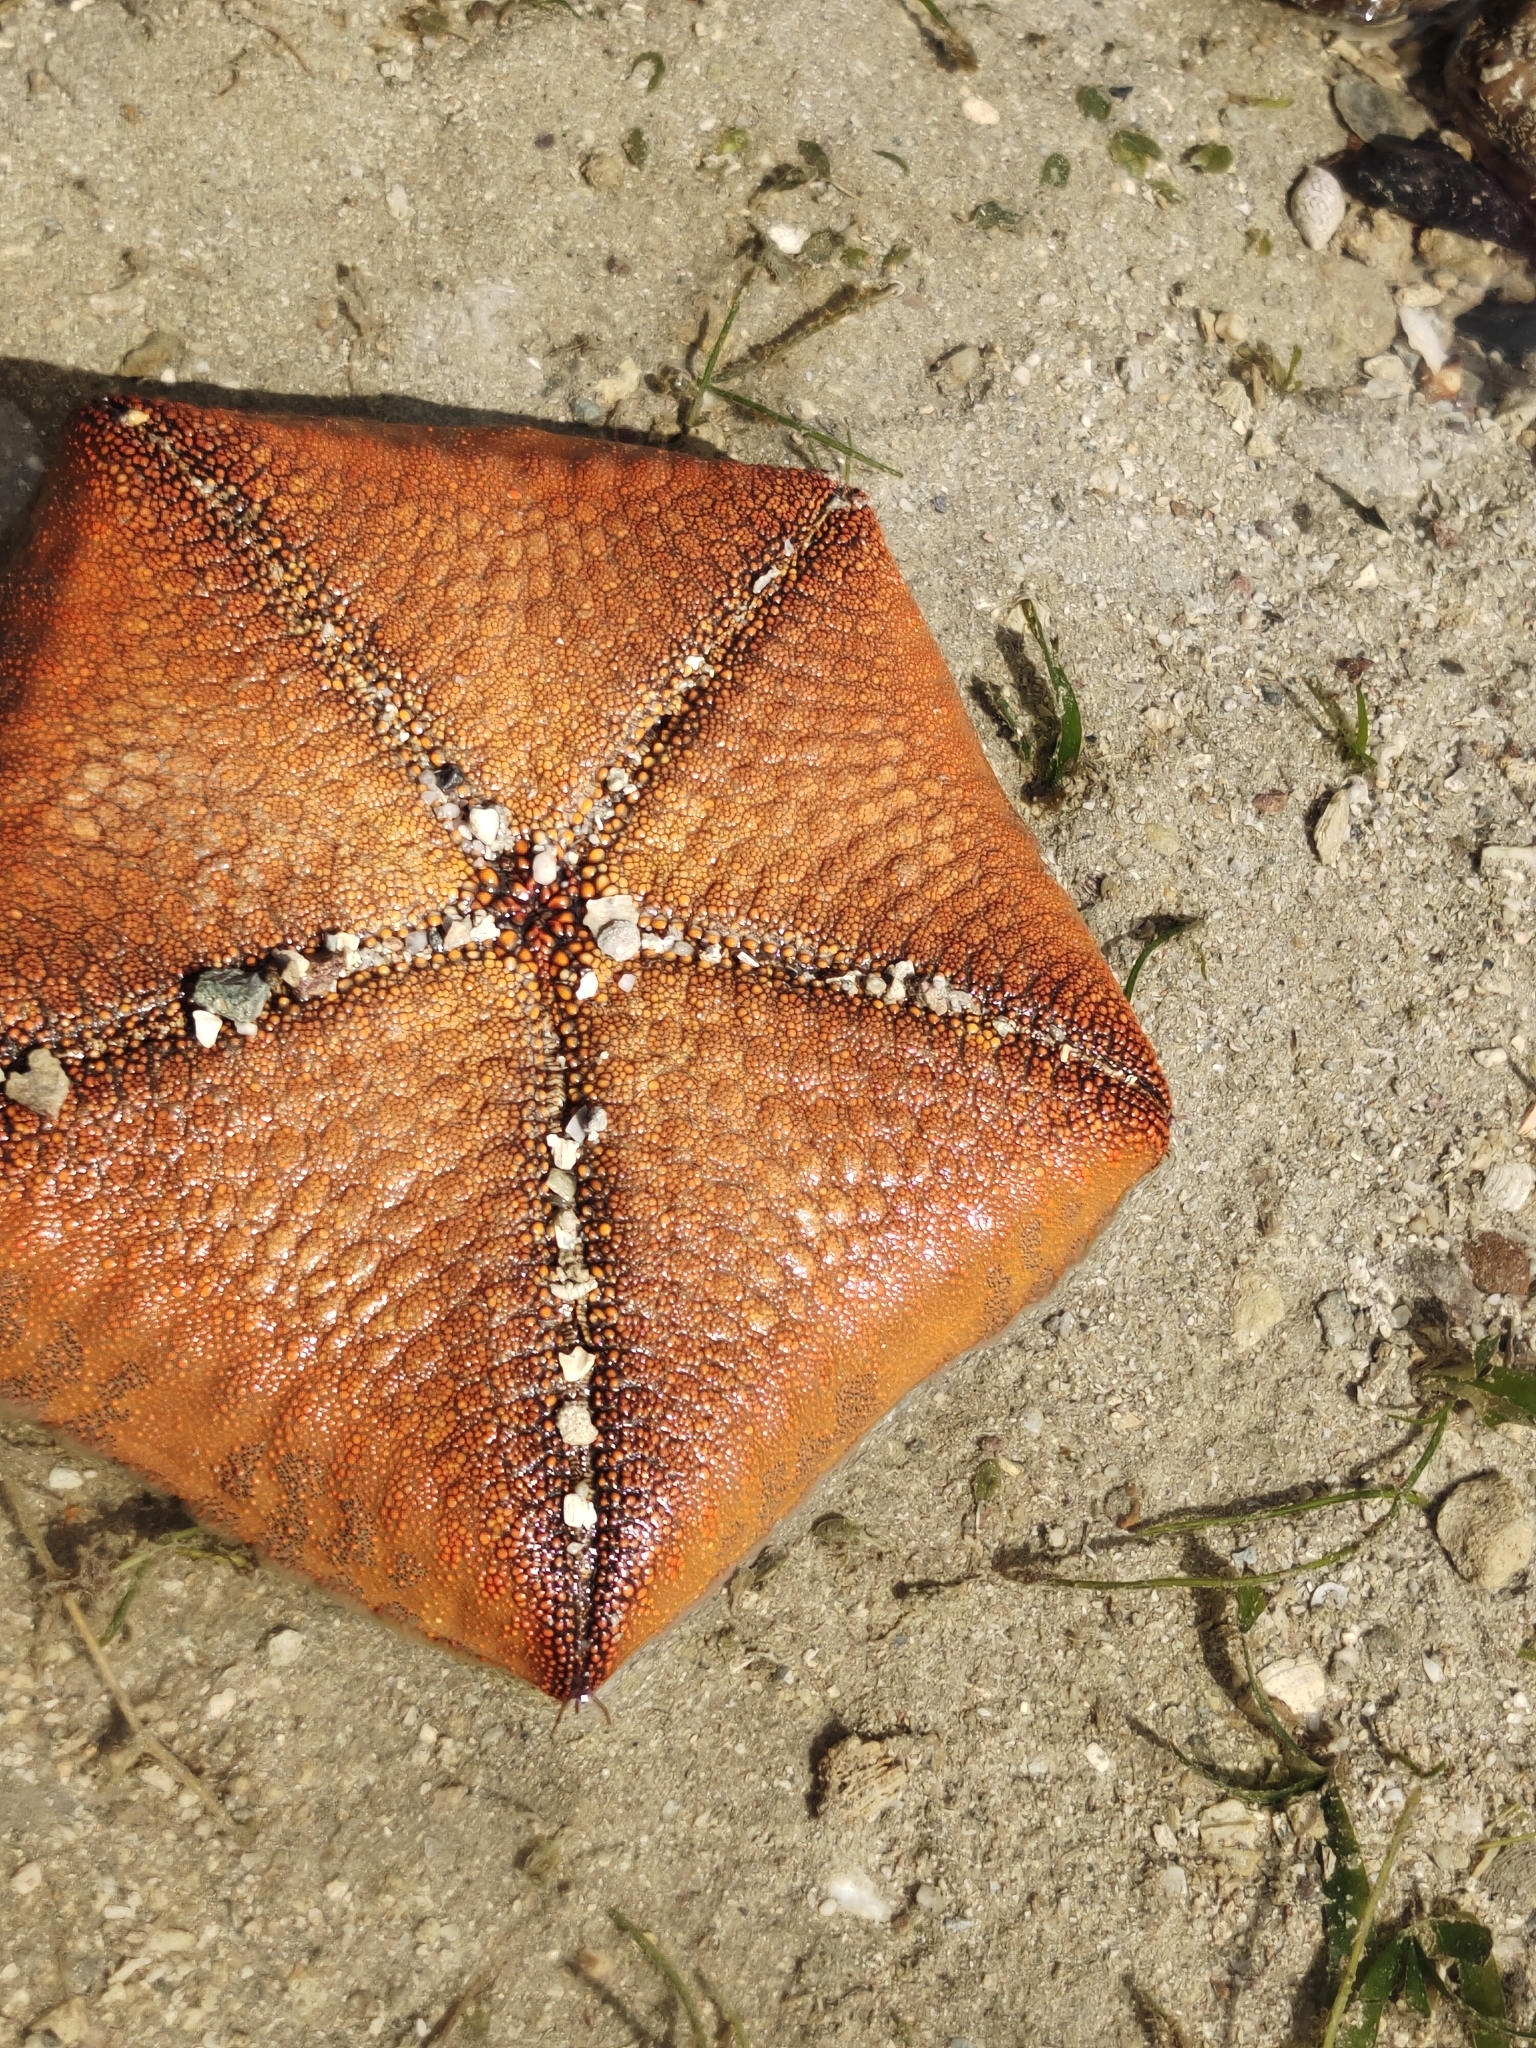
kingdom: Animalia
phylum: Echinodermata
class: Asteroidea
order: Valvatida
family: Oreasteridae
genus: Culcita
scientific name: Culcita novaeguineae
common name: Cushion star
